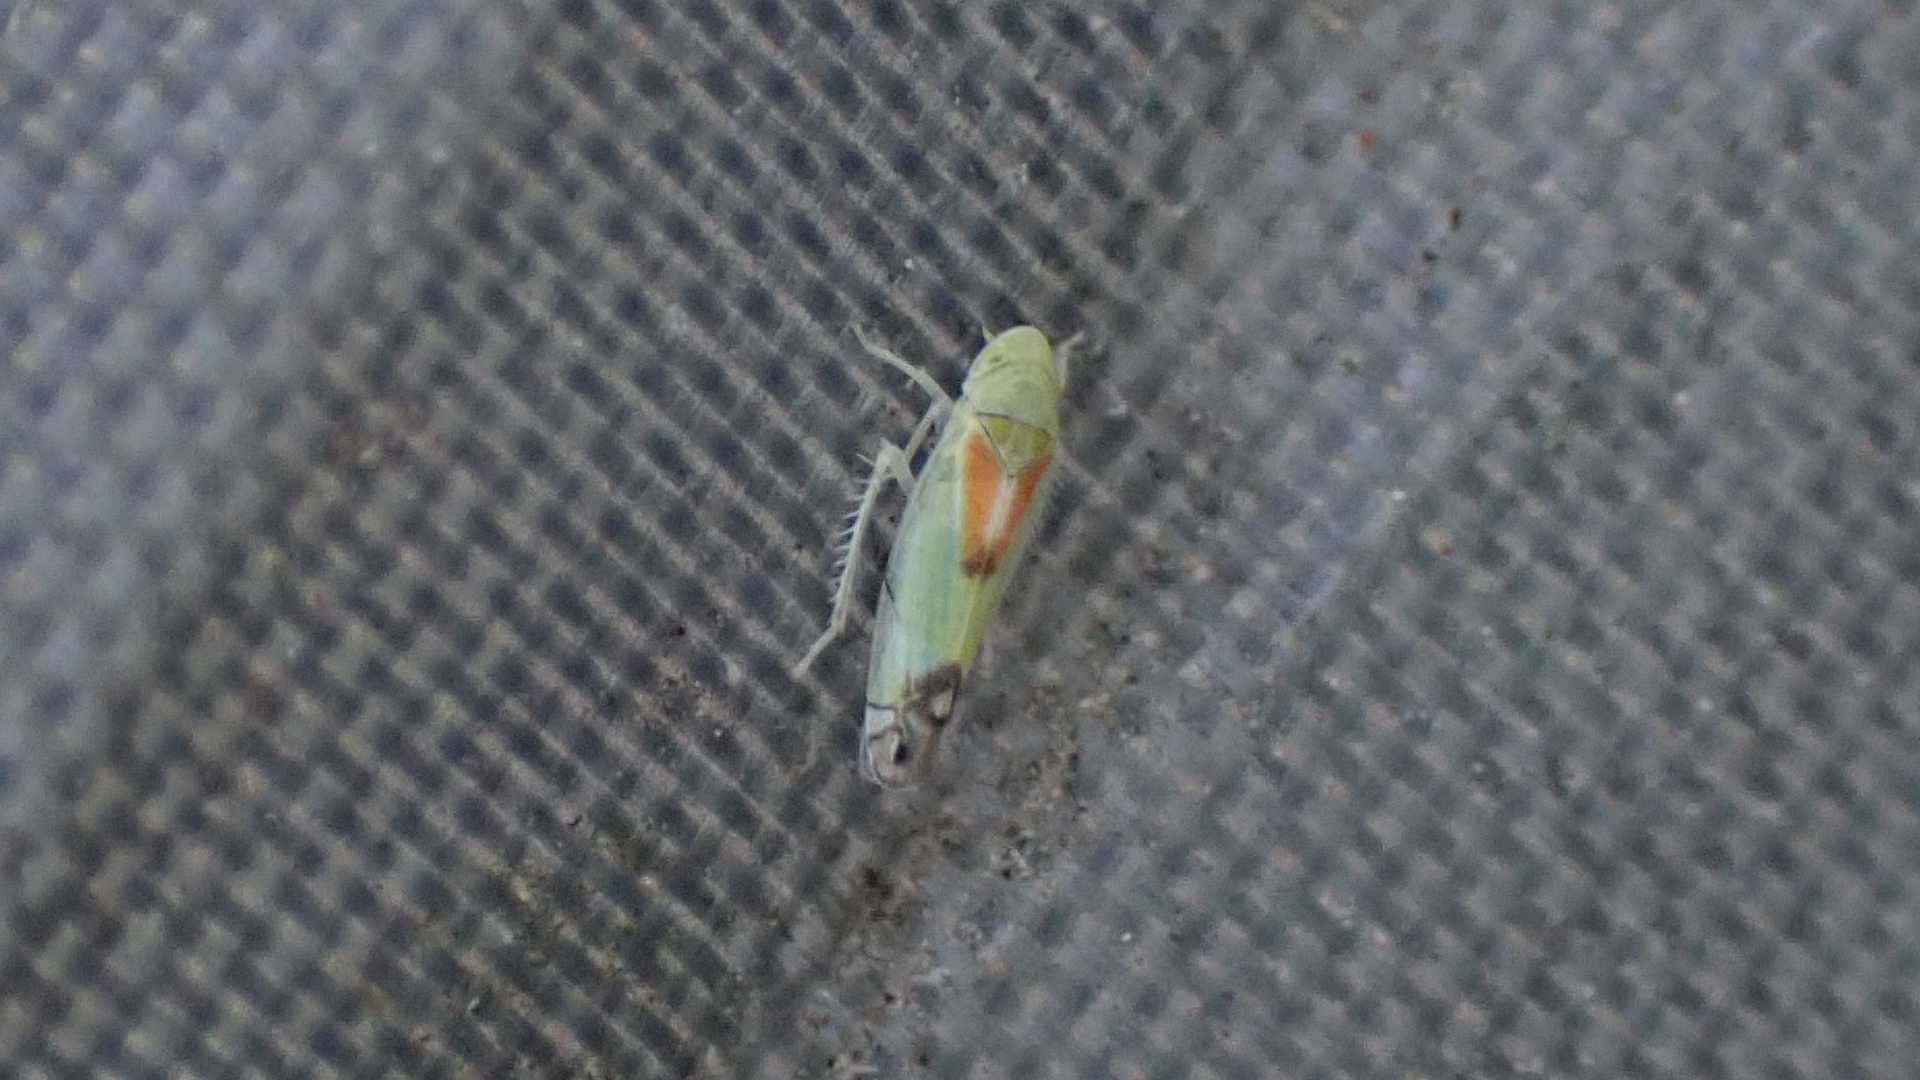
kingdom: Animalia
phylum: Arthropoda
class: Insecta
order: Hemiptera
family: Cicadellidae
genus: Zyginella
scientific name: Zyginella pulchra
